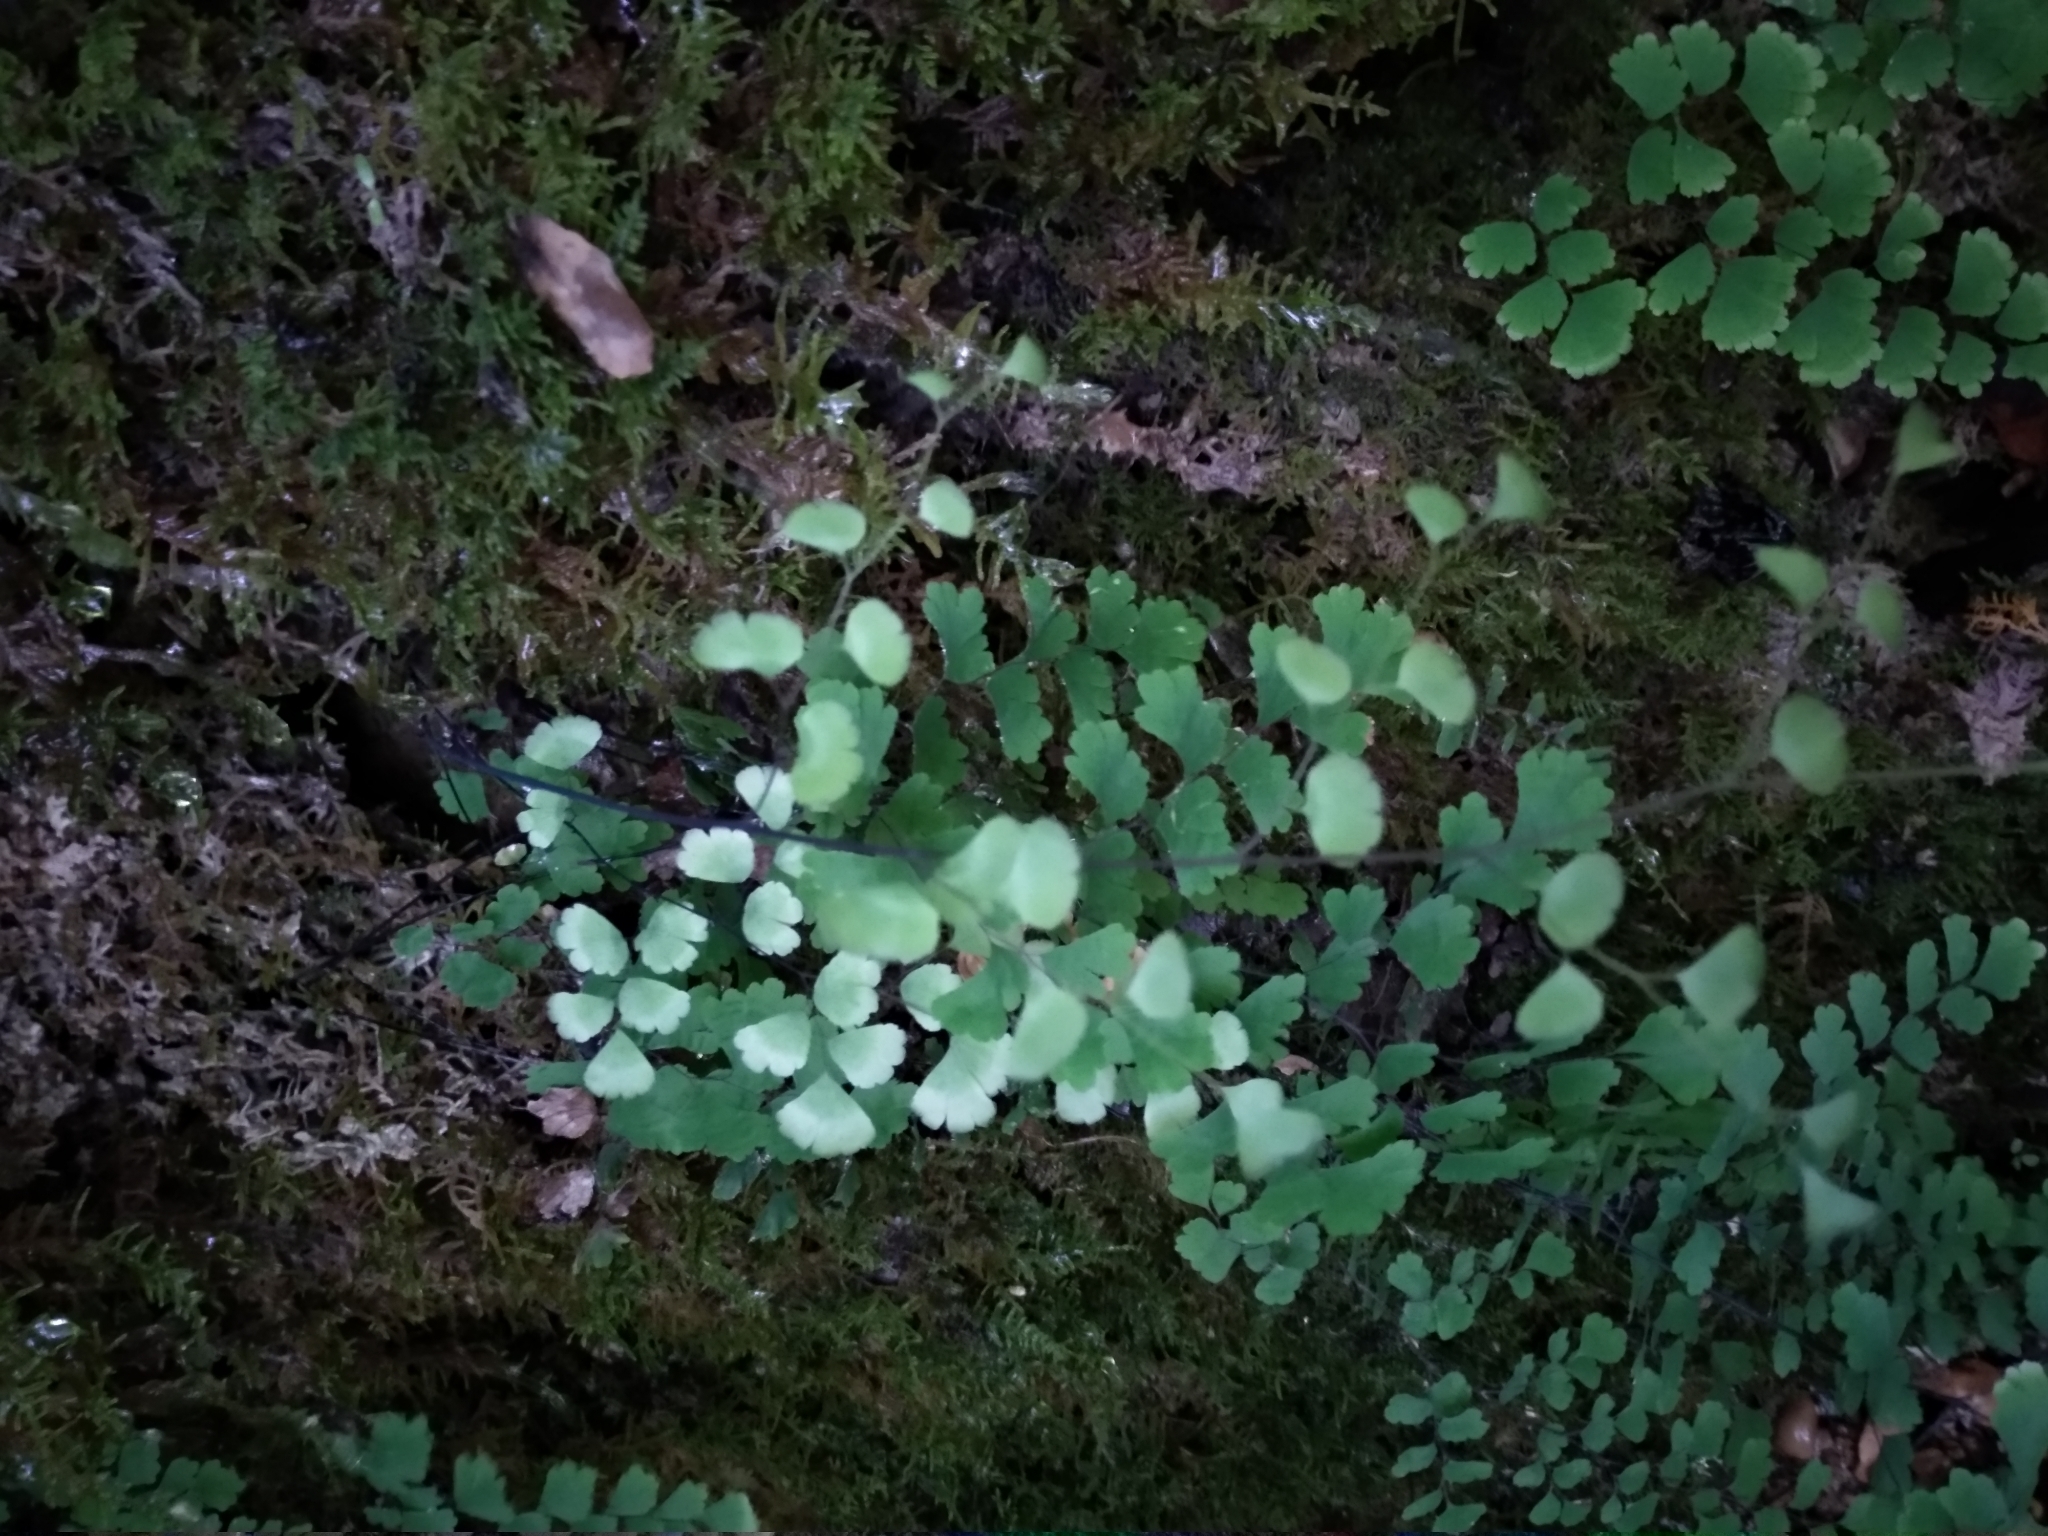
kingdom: Plantae
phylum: Tracheophyta
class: Polypodiopsida
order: Polypodiales
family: Pteridaceae
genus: Adiantum
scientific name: Adiantum capillus-veneris
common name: Maidenhair fern
